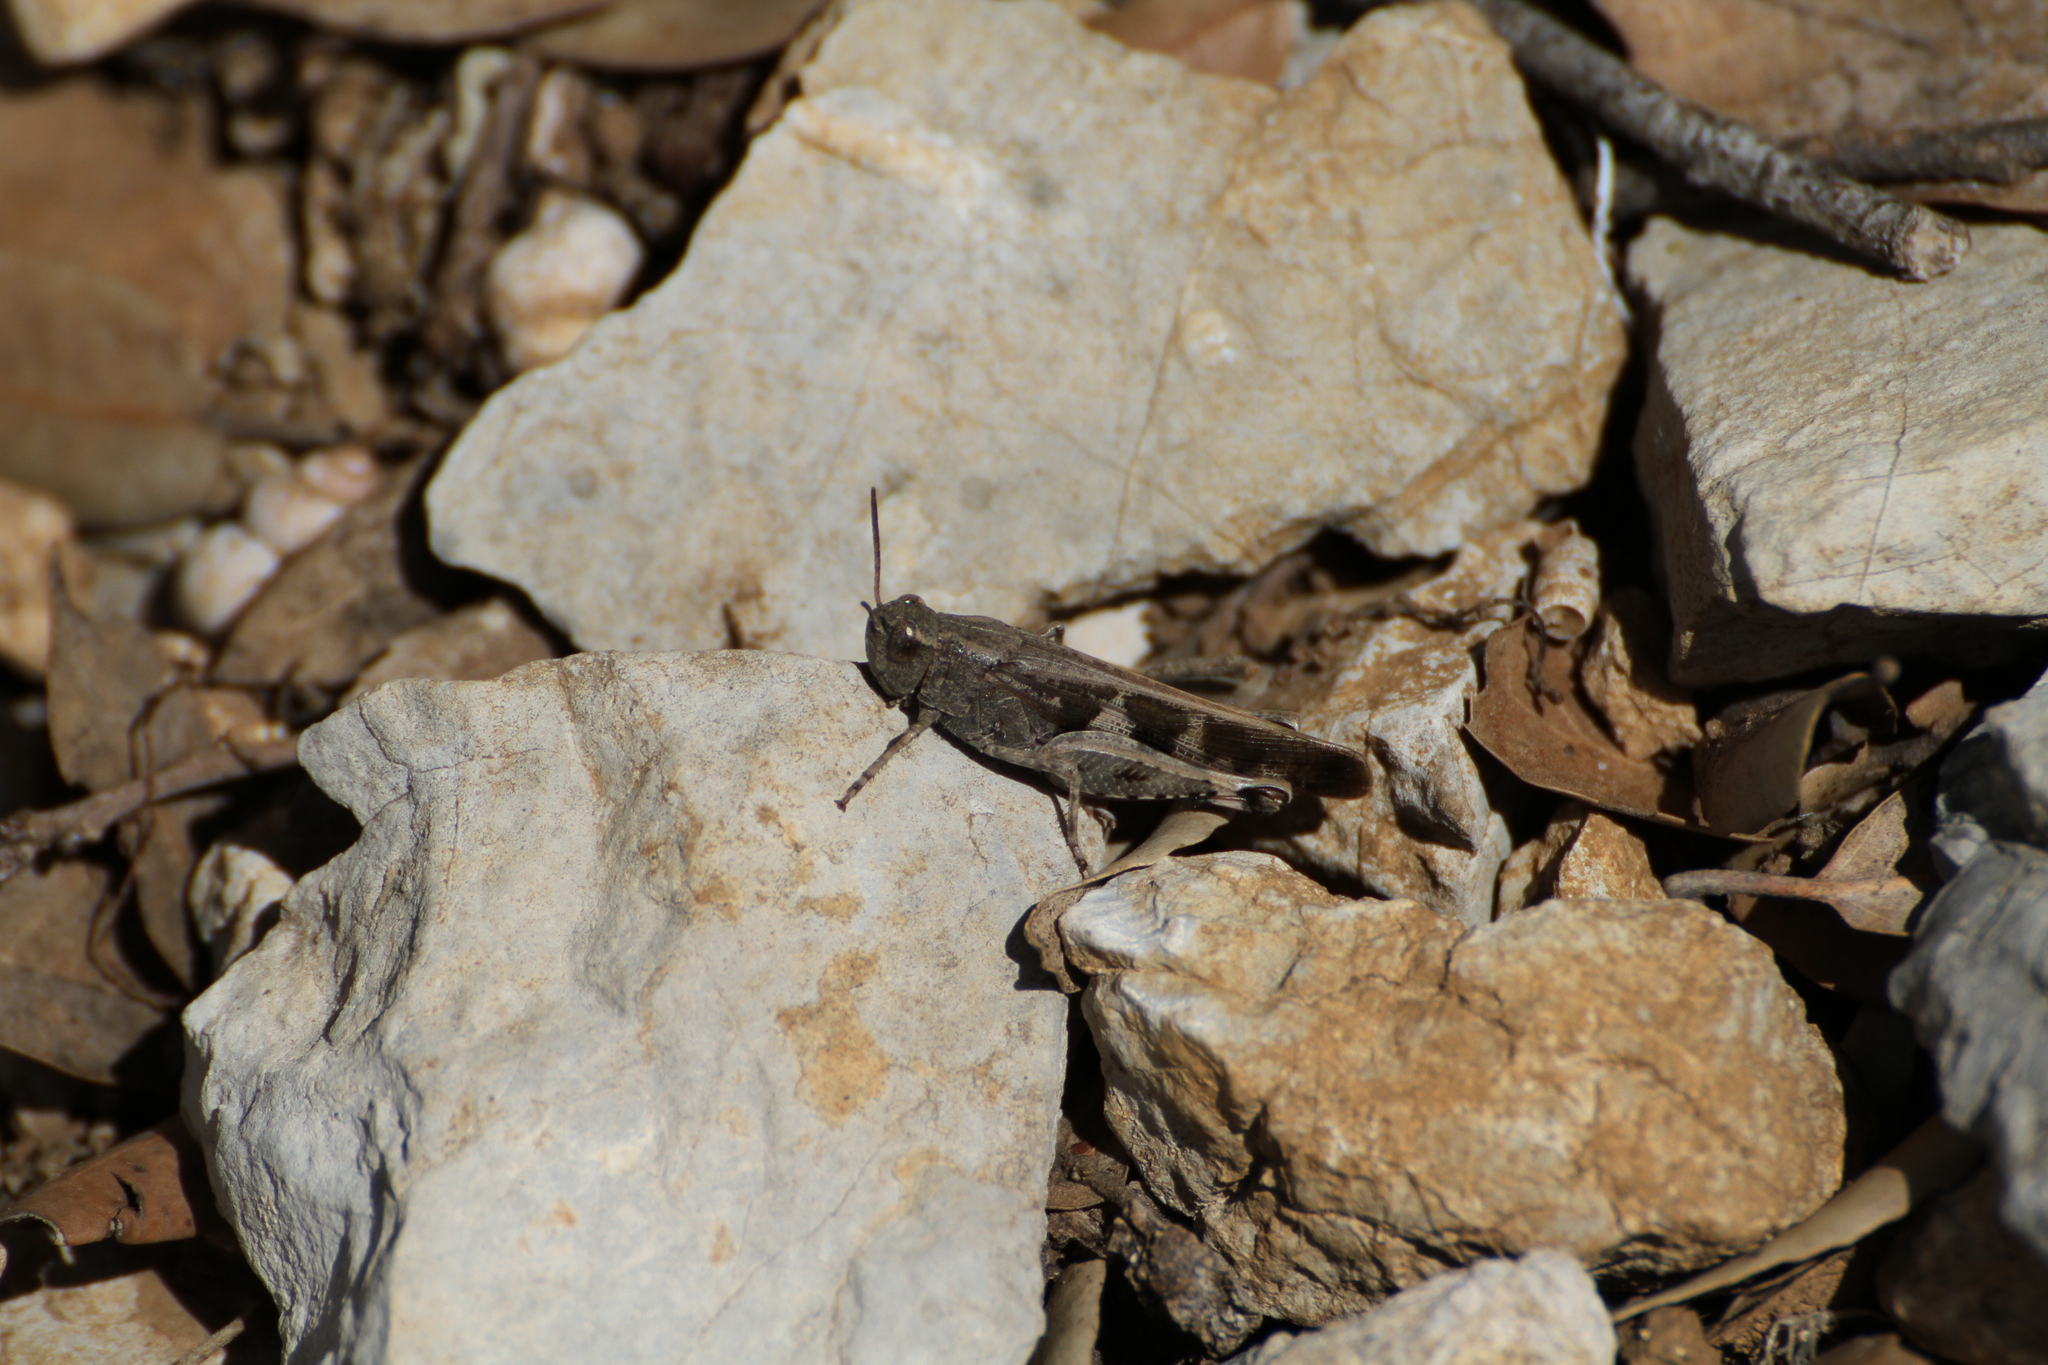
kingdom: Animalia
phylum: Arthropoda
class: Insecta
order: Orthoptera
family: Acrididae
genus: Aiolopus
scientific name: Aiolopus strepens
